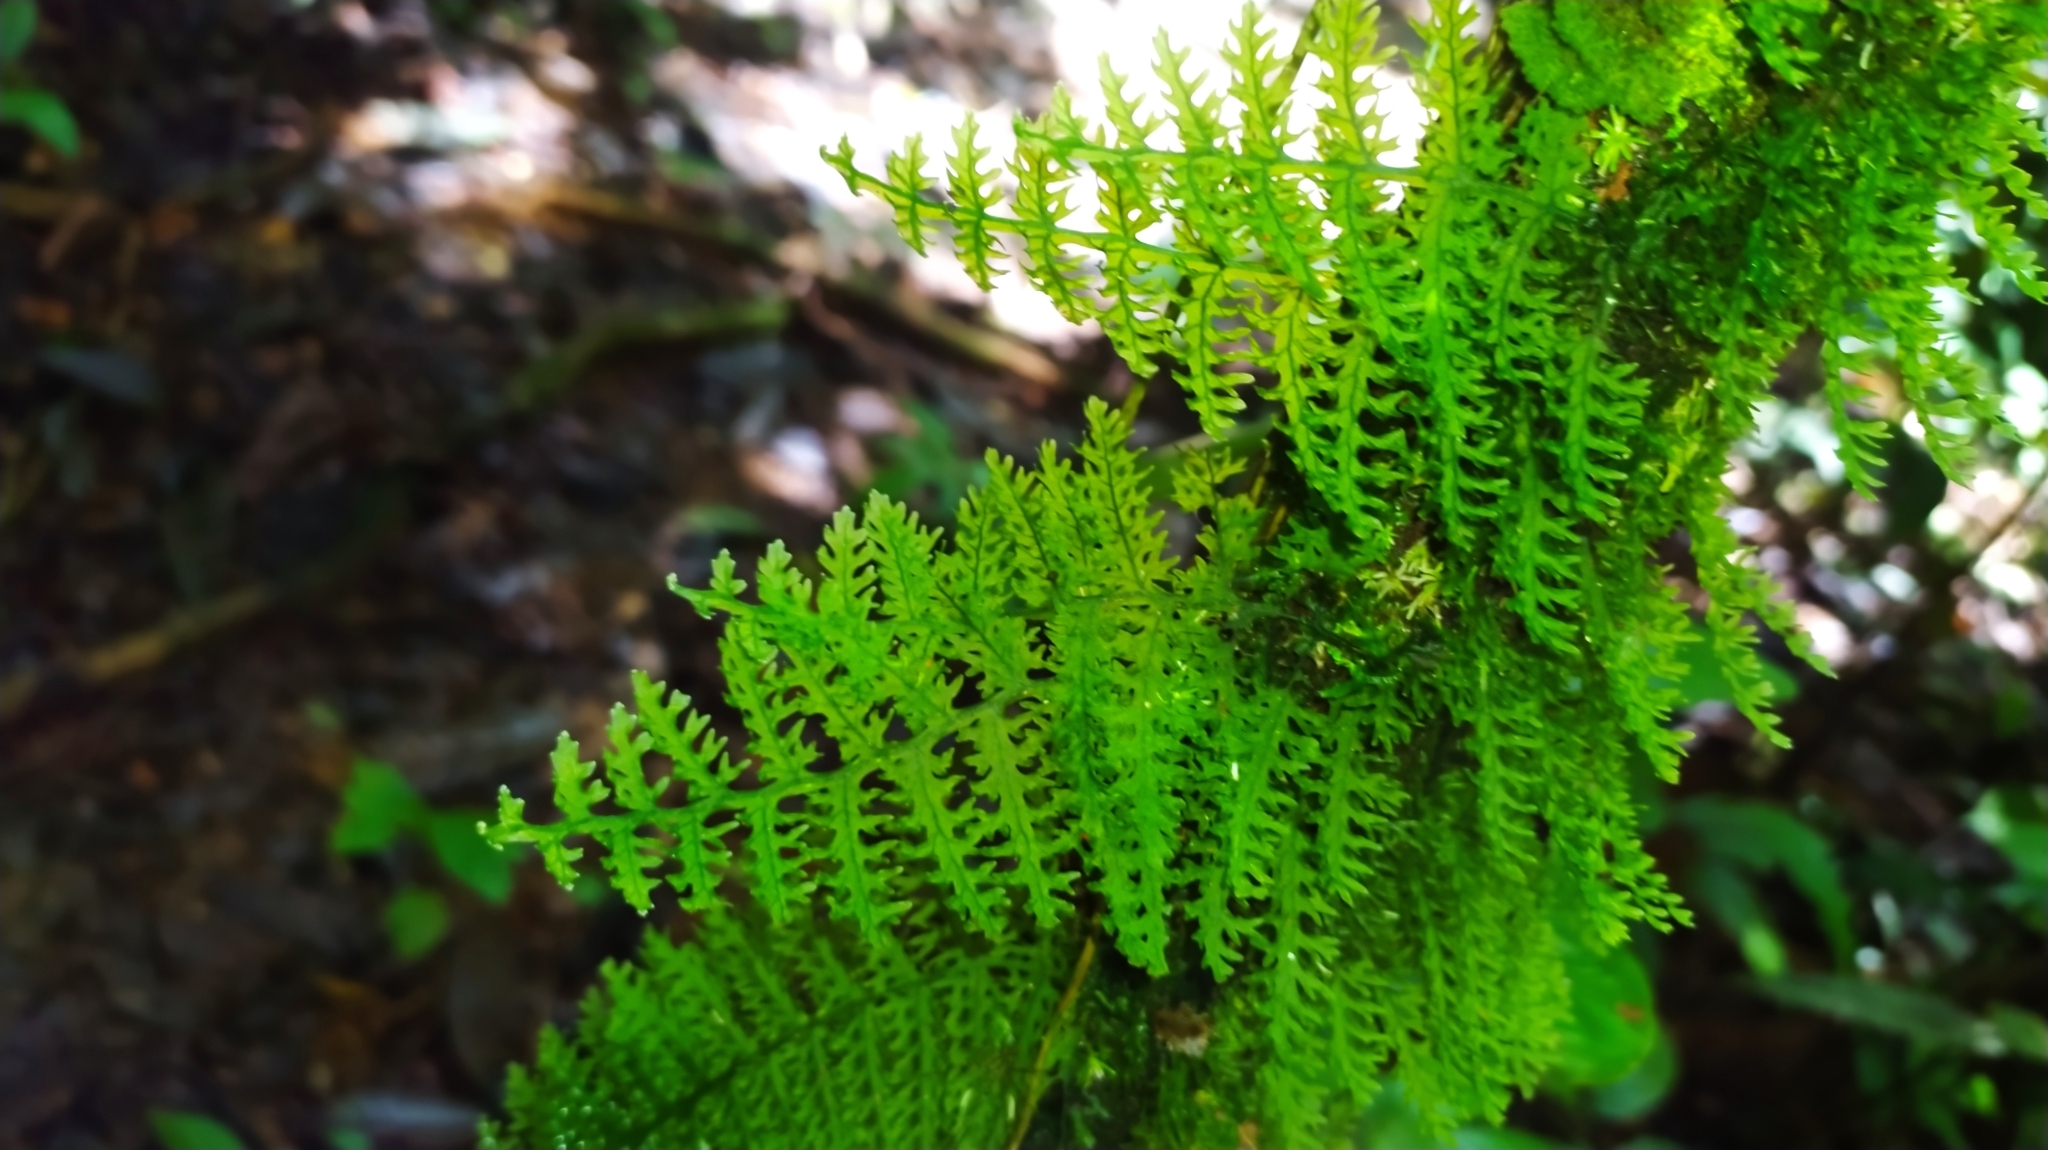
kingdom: Plantae
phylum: Tracheophyta
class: Polypodiopsida
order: Hymenophyllales
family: Hymenophyllaceae
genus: Trichomanes
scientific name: Trichomanes pedicellatum
